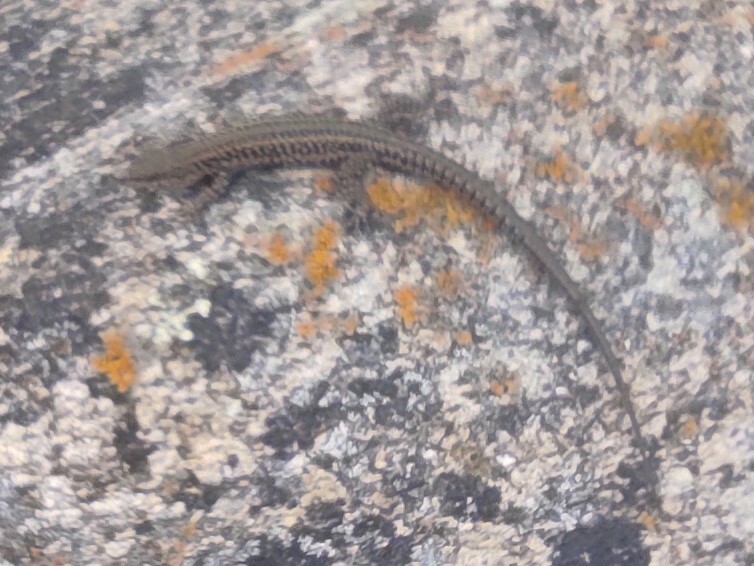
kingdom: Animalia
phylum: Chordata
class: Squamata
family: Lacertidae
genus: Podarcis
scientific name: Podarcis
